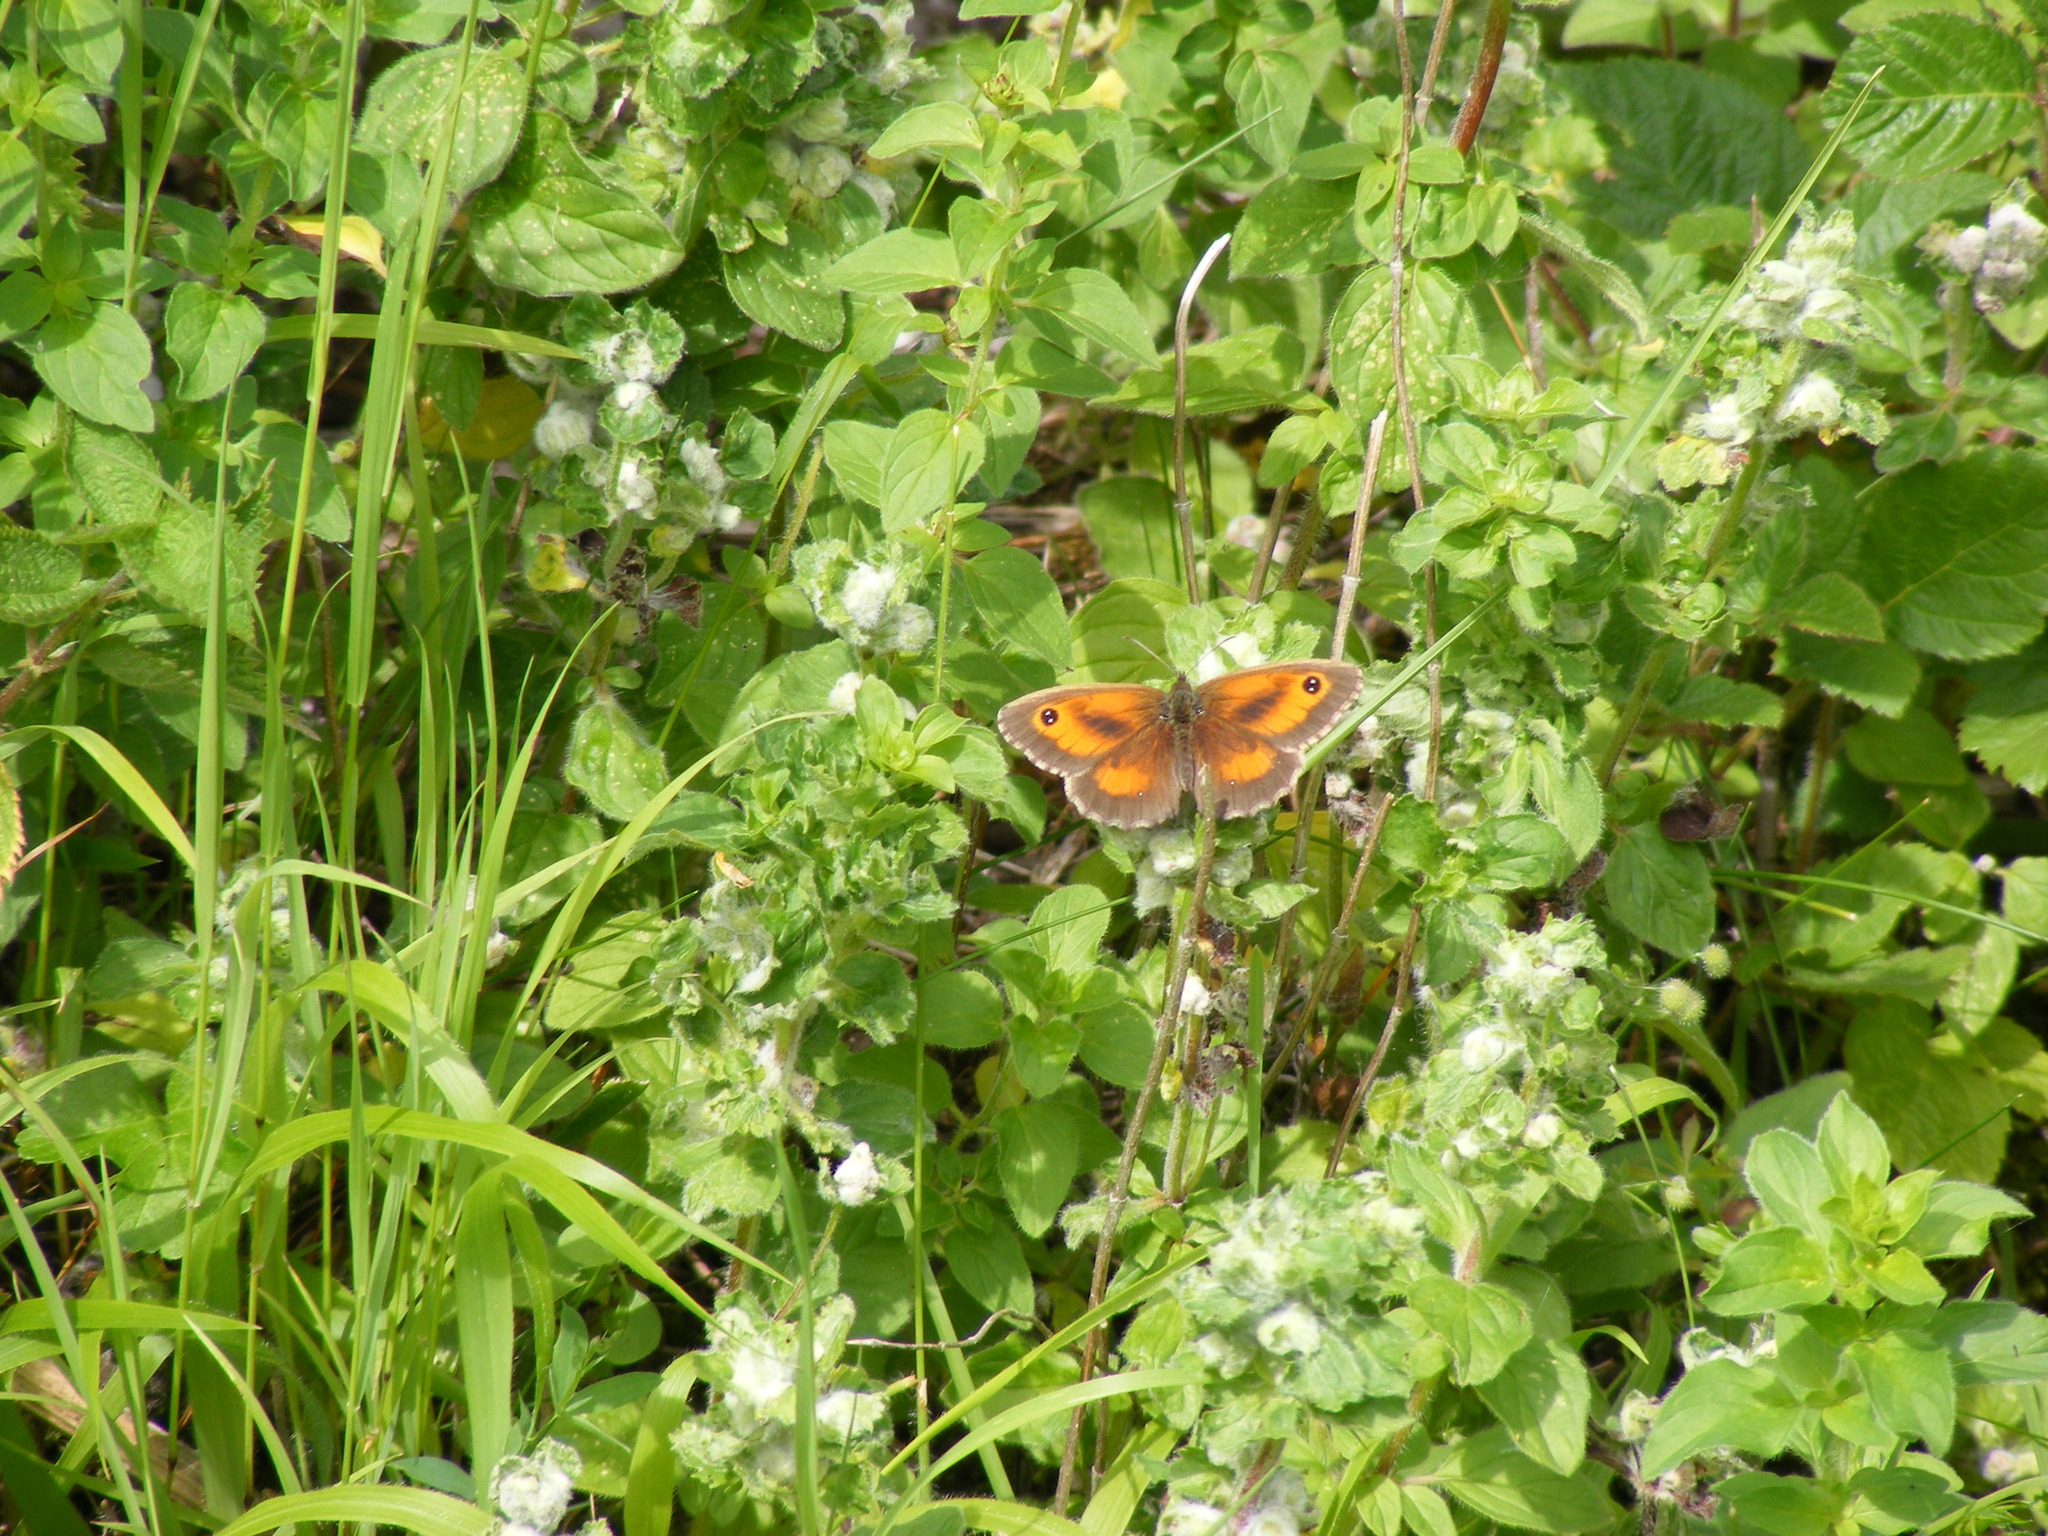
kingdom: Animalia
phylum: Arthropoda
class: Insecta
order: Lepidoptera
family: Nymphalidae
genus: Pyronia
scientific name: Pyronia tithonus
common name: Gatekeeper
